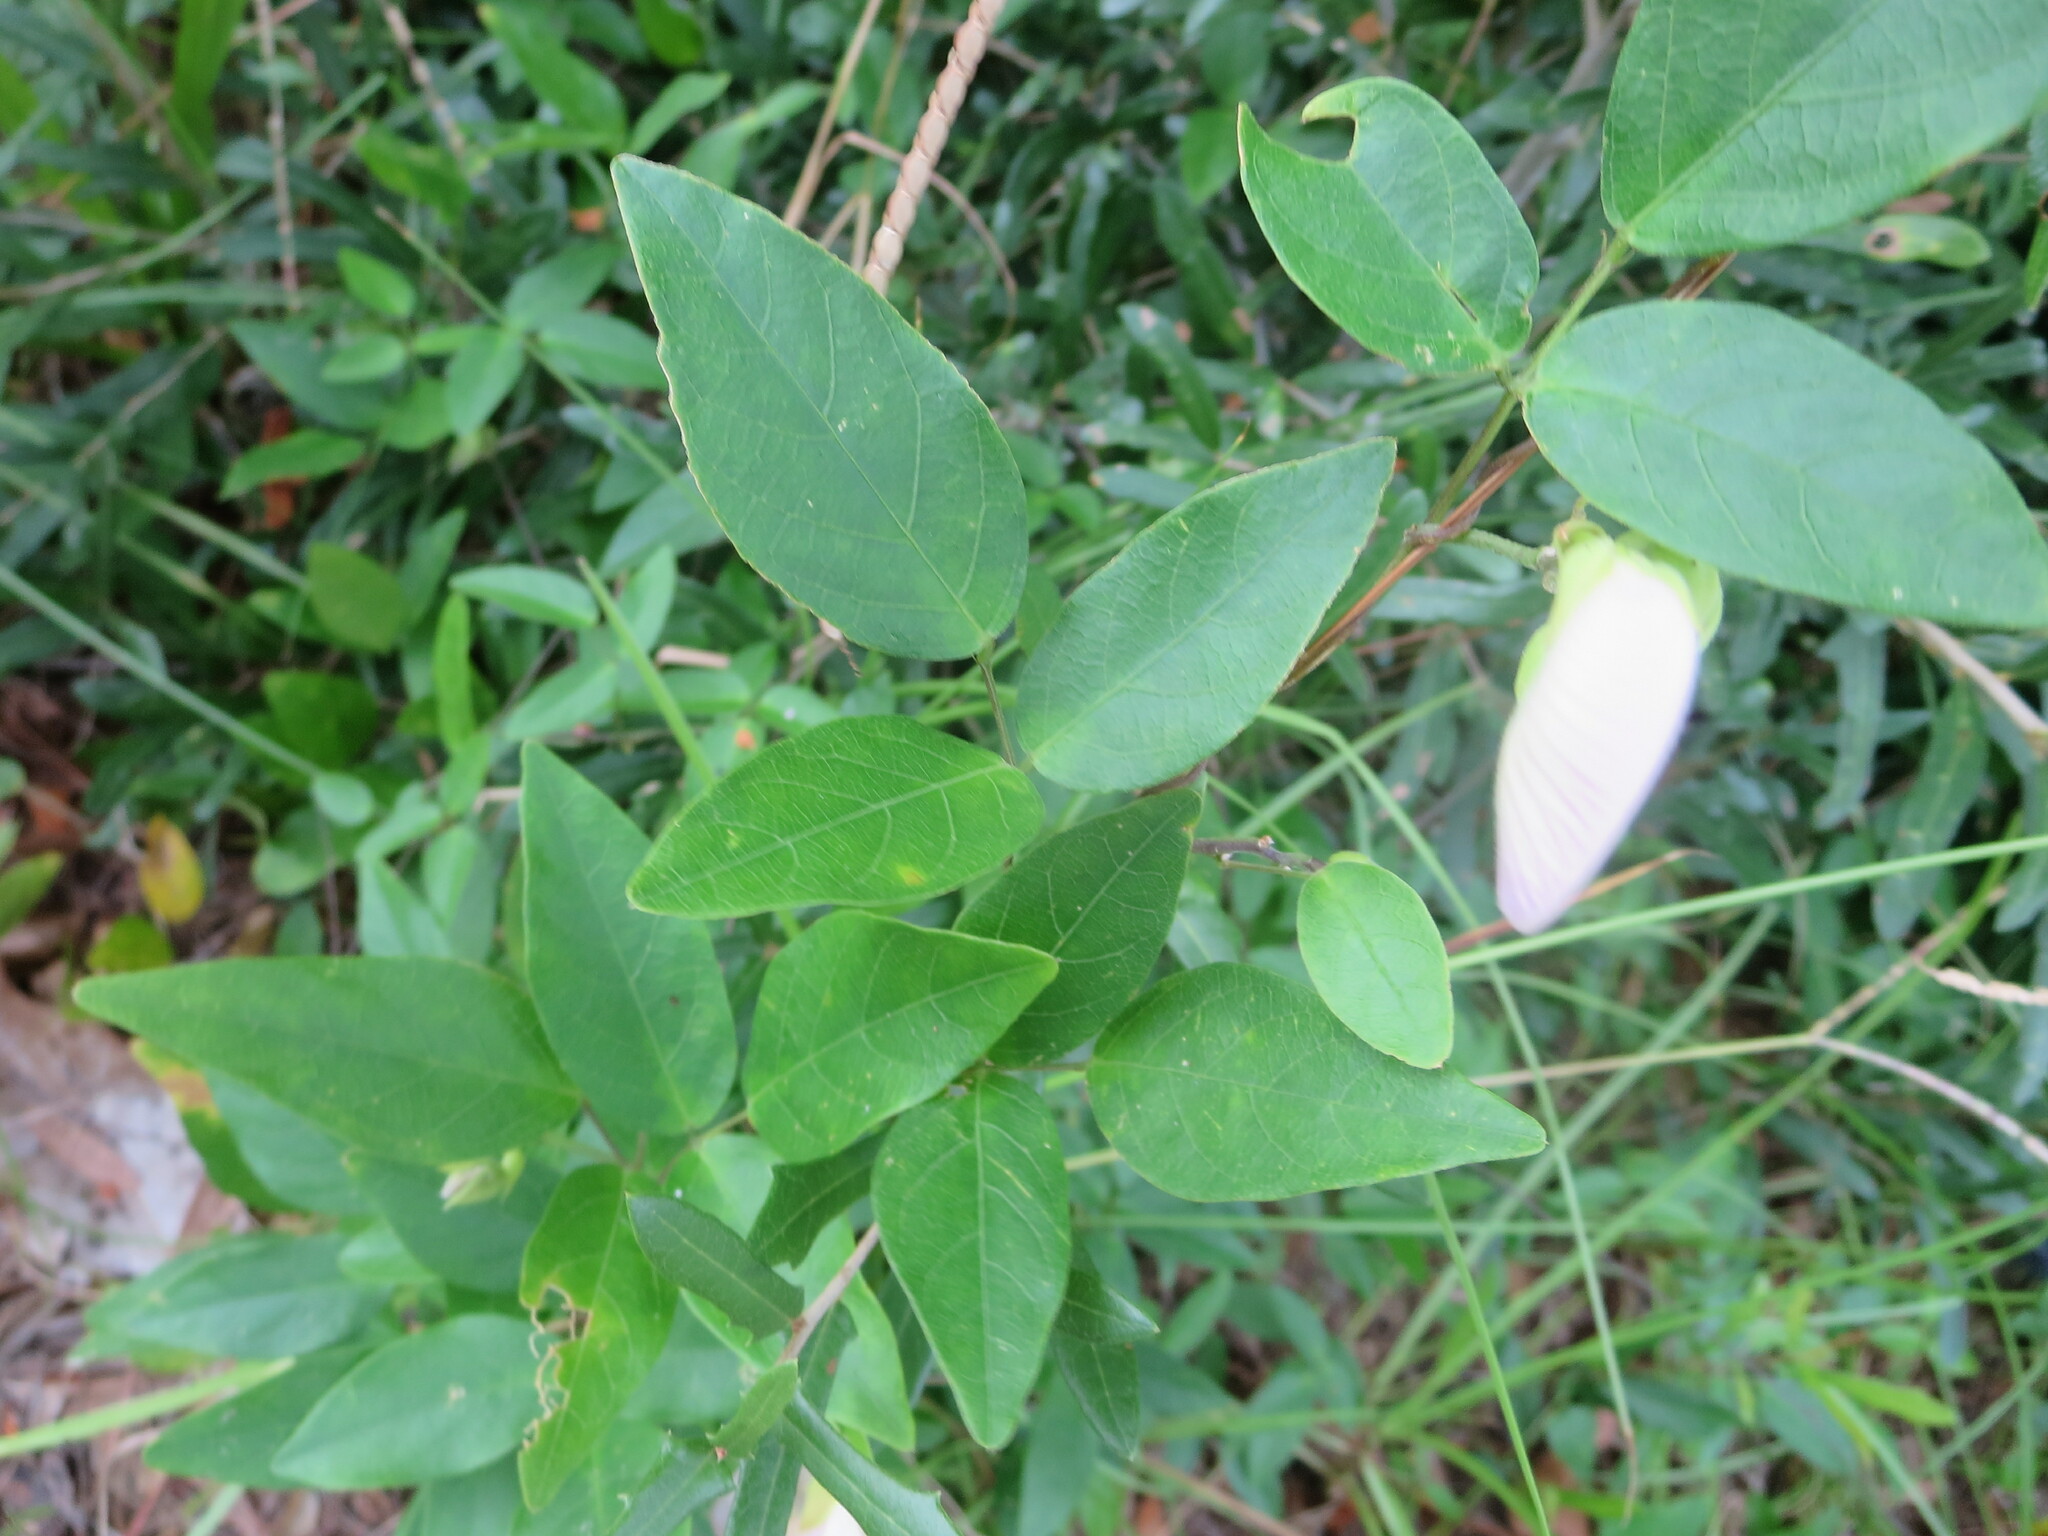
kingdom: Plantae
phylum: Tracheophyta
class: Magnoliopsida
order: Fabales
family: Fabaceae
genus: Centrosema
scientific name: Centrosema virginianum
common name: Butterfly-pea
